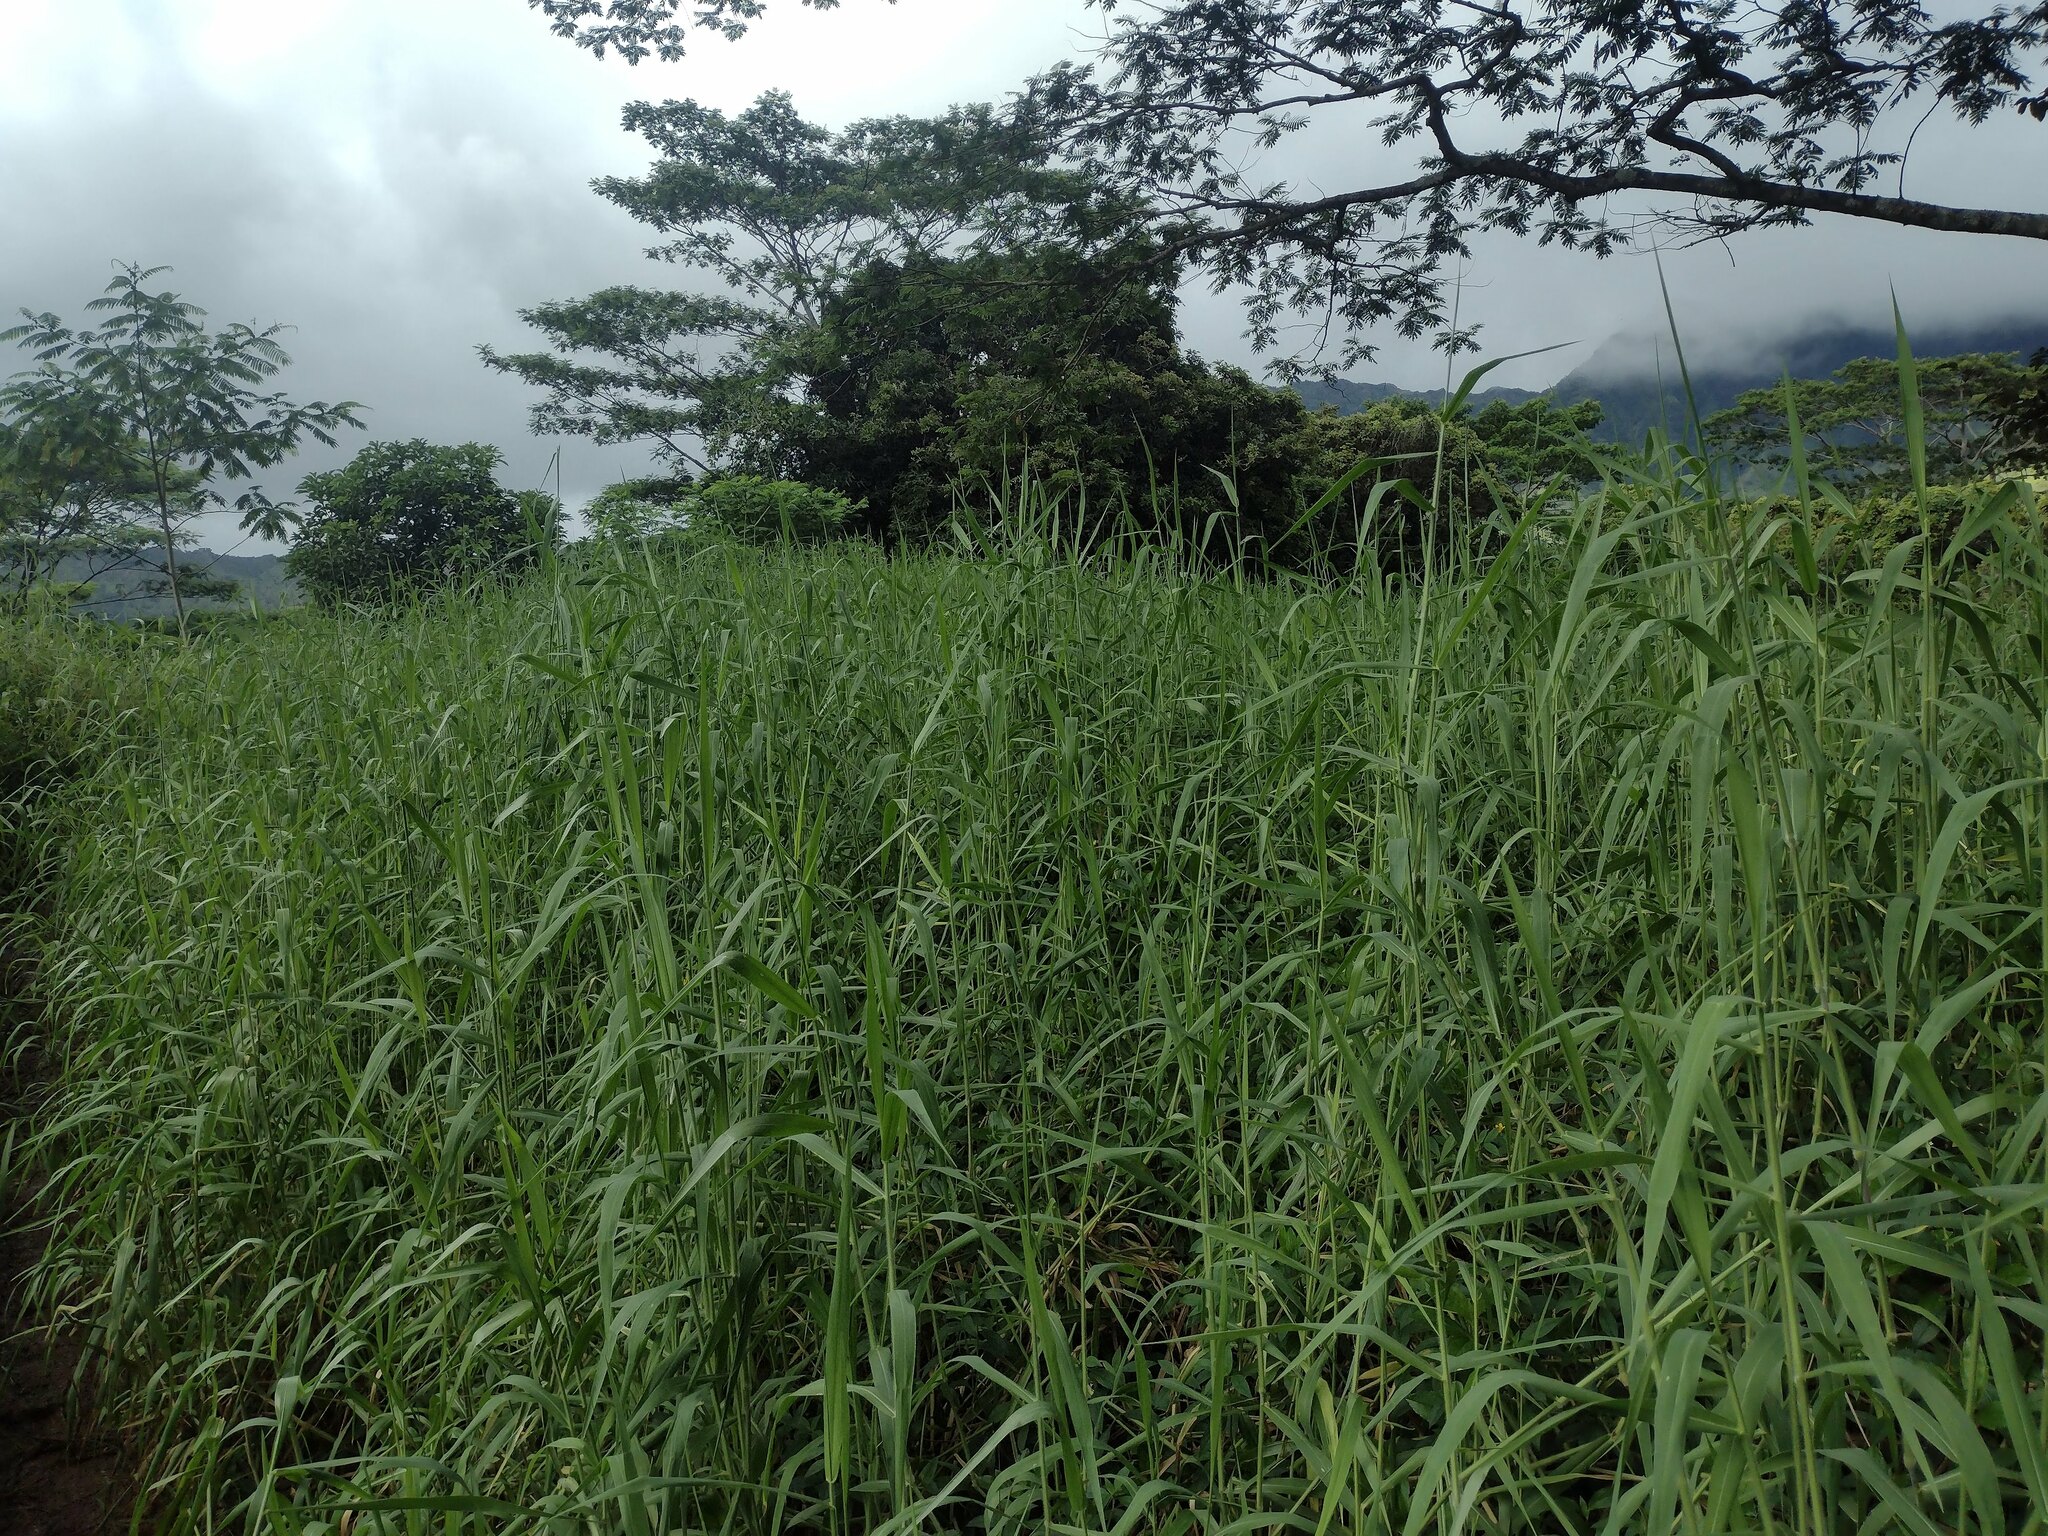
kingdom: Plantae
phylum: Tracheophyta
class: Liliopsida
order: Poales
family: Poaceae
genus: Urochloa
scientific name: Urochloa mutica
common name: Para grass
